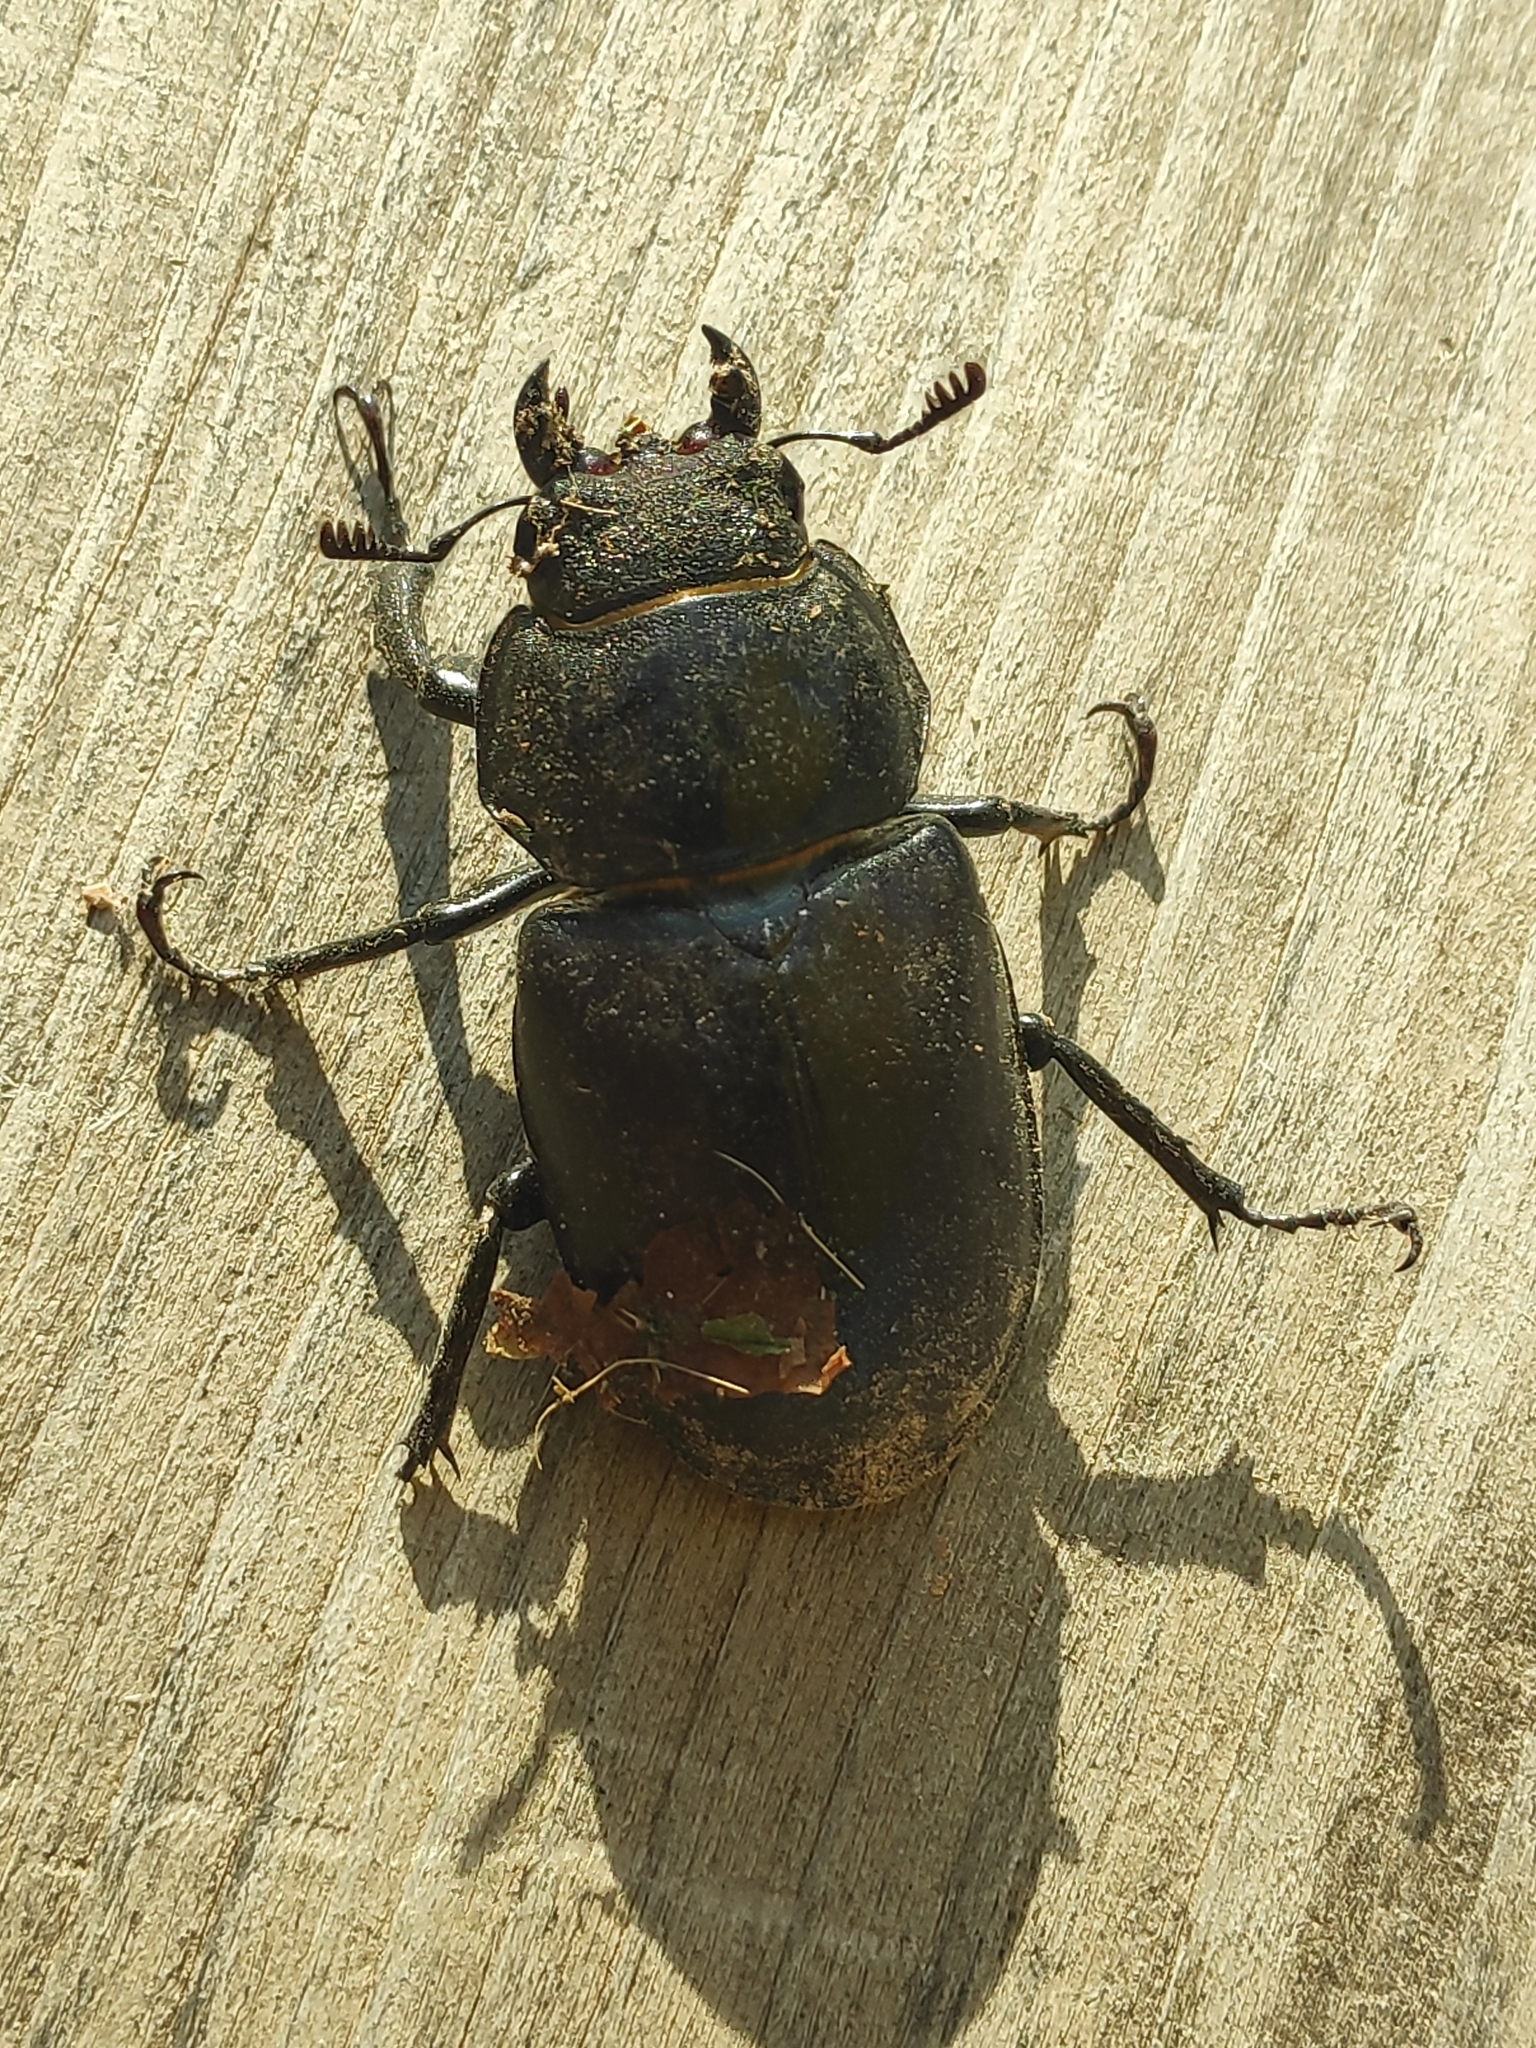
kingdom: Animalia
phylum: Arthropoda
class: Insecta
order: Coleoptera
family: Lucanidae
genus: Lucanus
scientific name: Lucanus cervus
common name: Stag beetle
